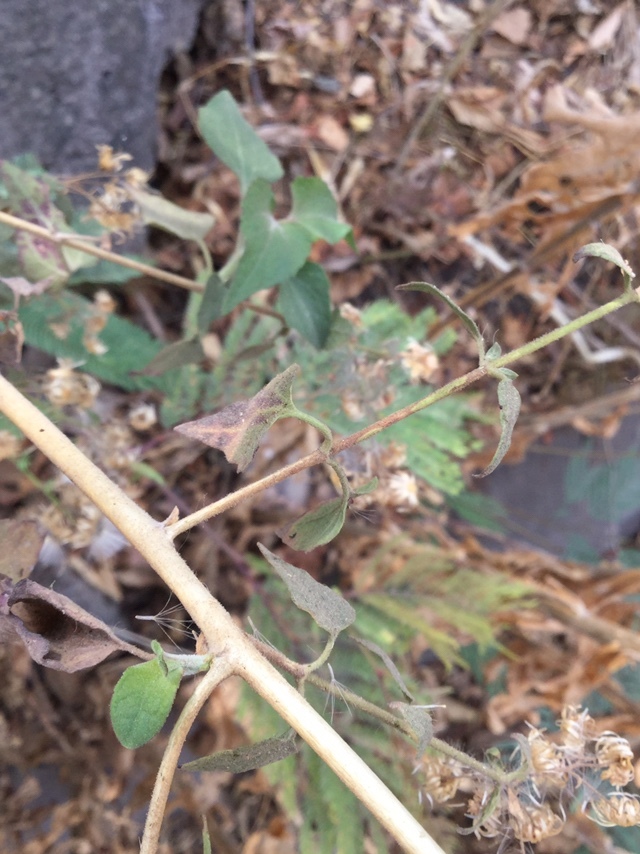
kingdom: Plantae
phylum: Tracheophyta
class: Magnoliopsida
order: Asterales
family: Asteraceae
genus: Brickellia
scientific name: Brickellia cardiophylla
